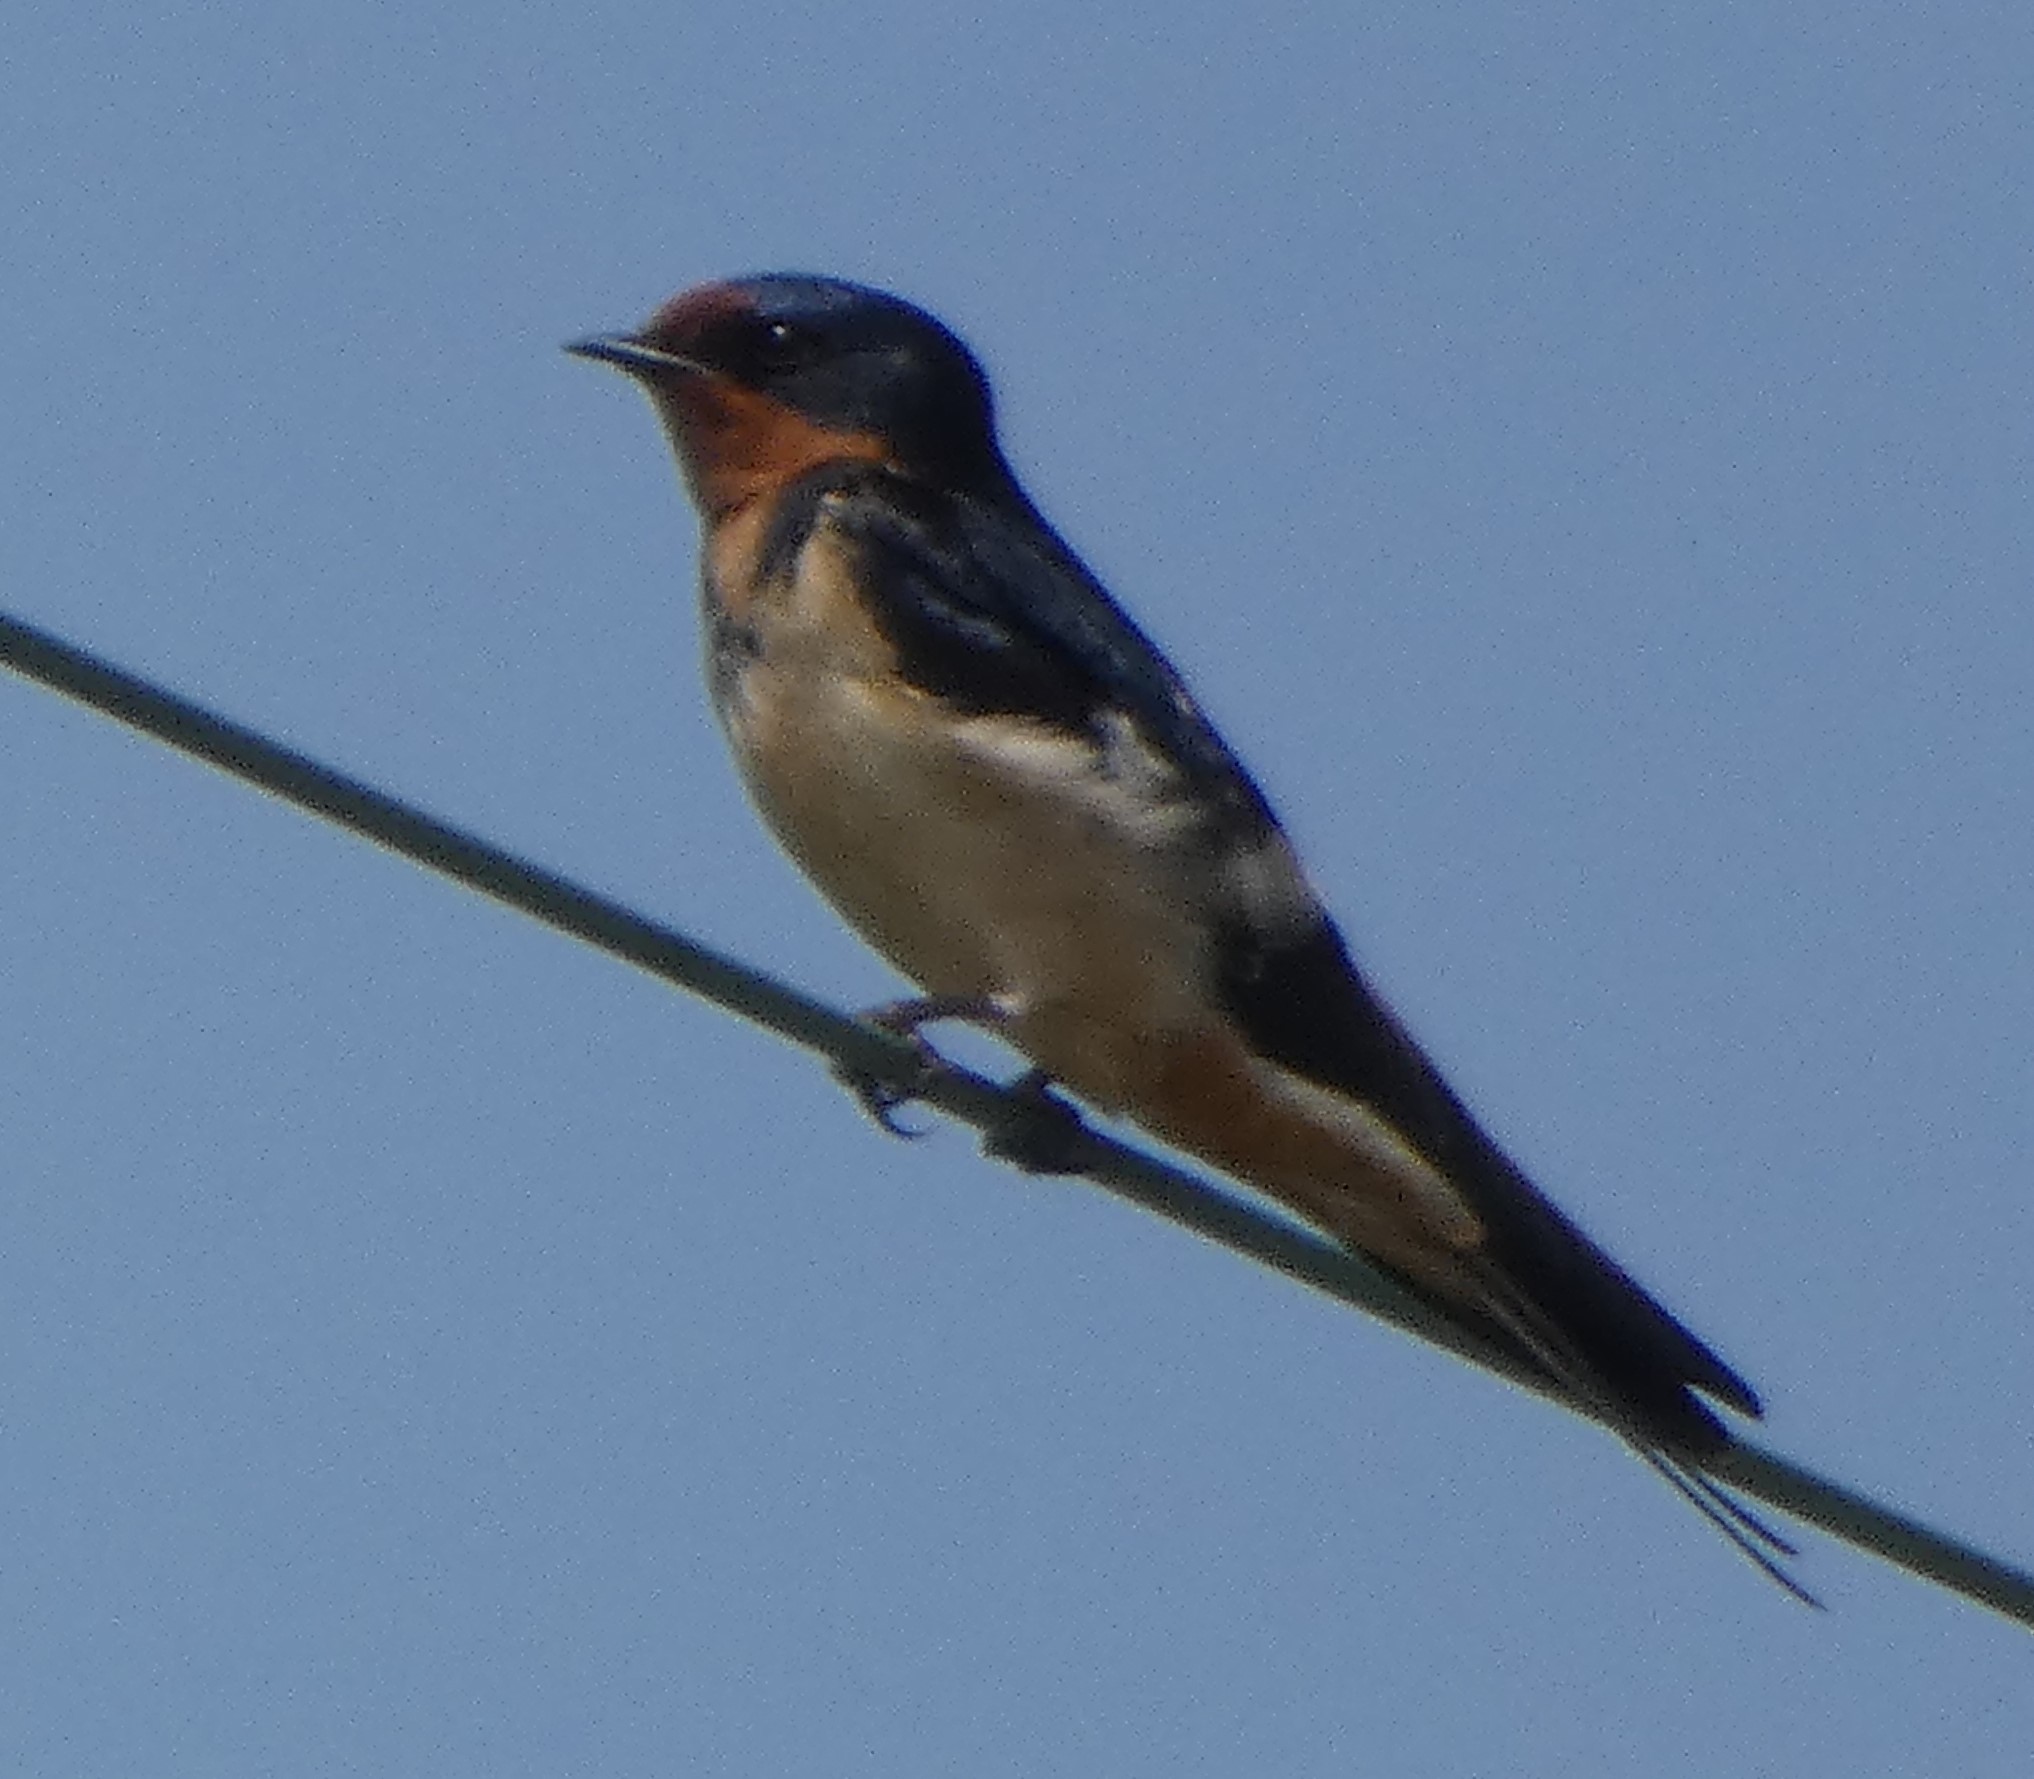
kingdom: Animalia
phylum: Chordata
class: Aves
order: Passeriformes
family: Hirundinidae
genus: Hirundo
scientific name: Hirundo rustica
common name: Barn swallow
